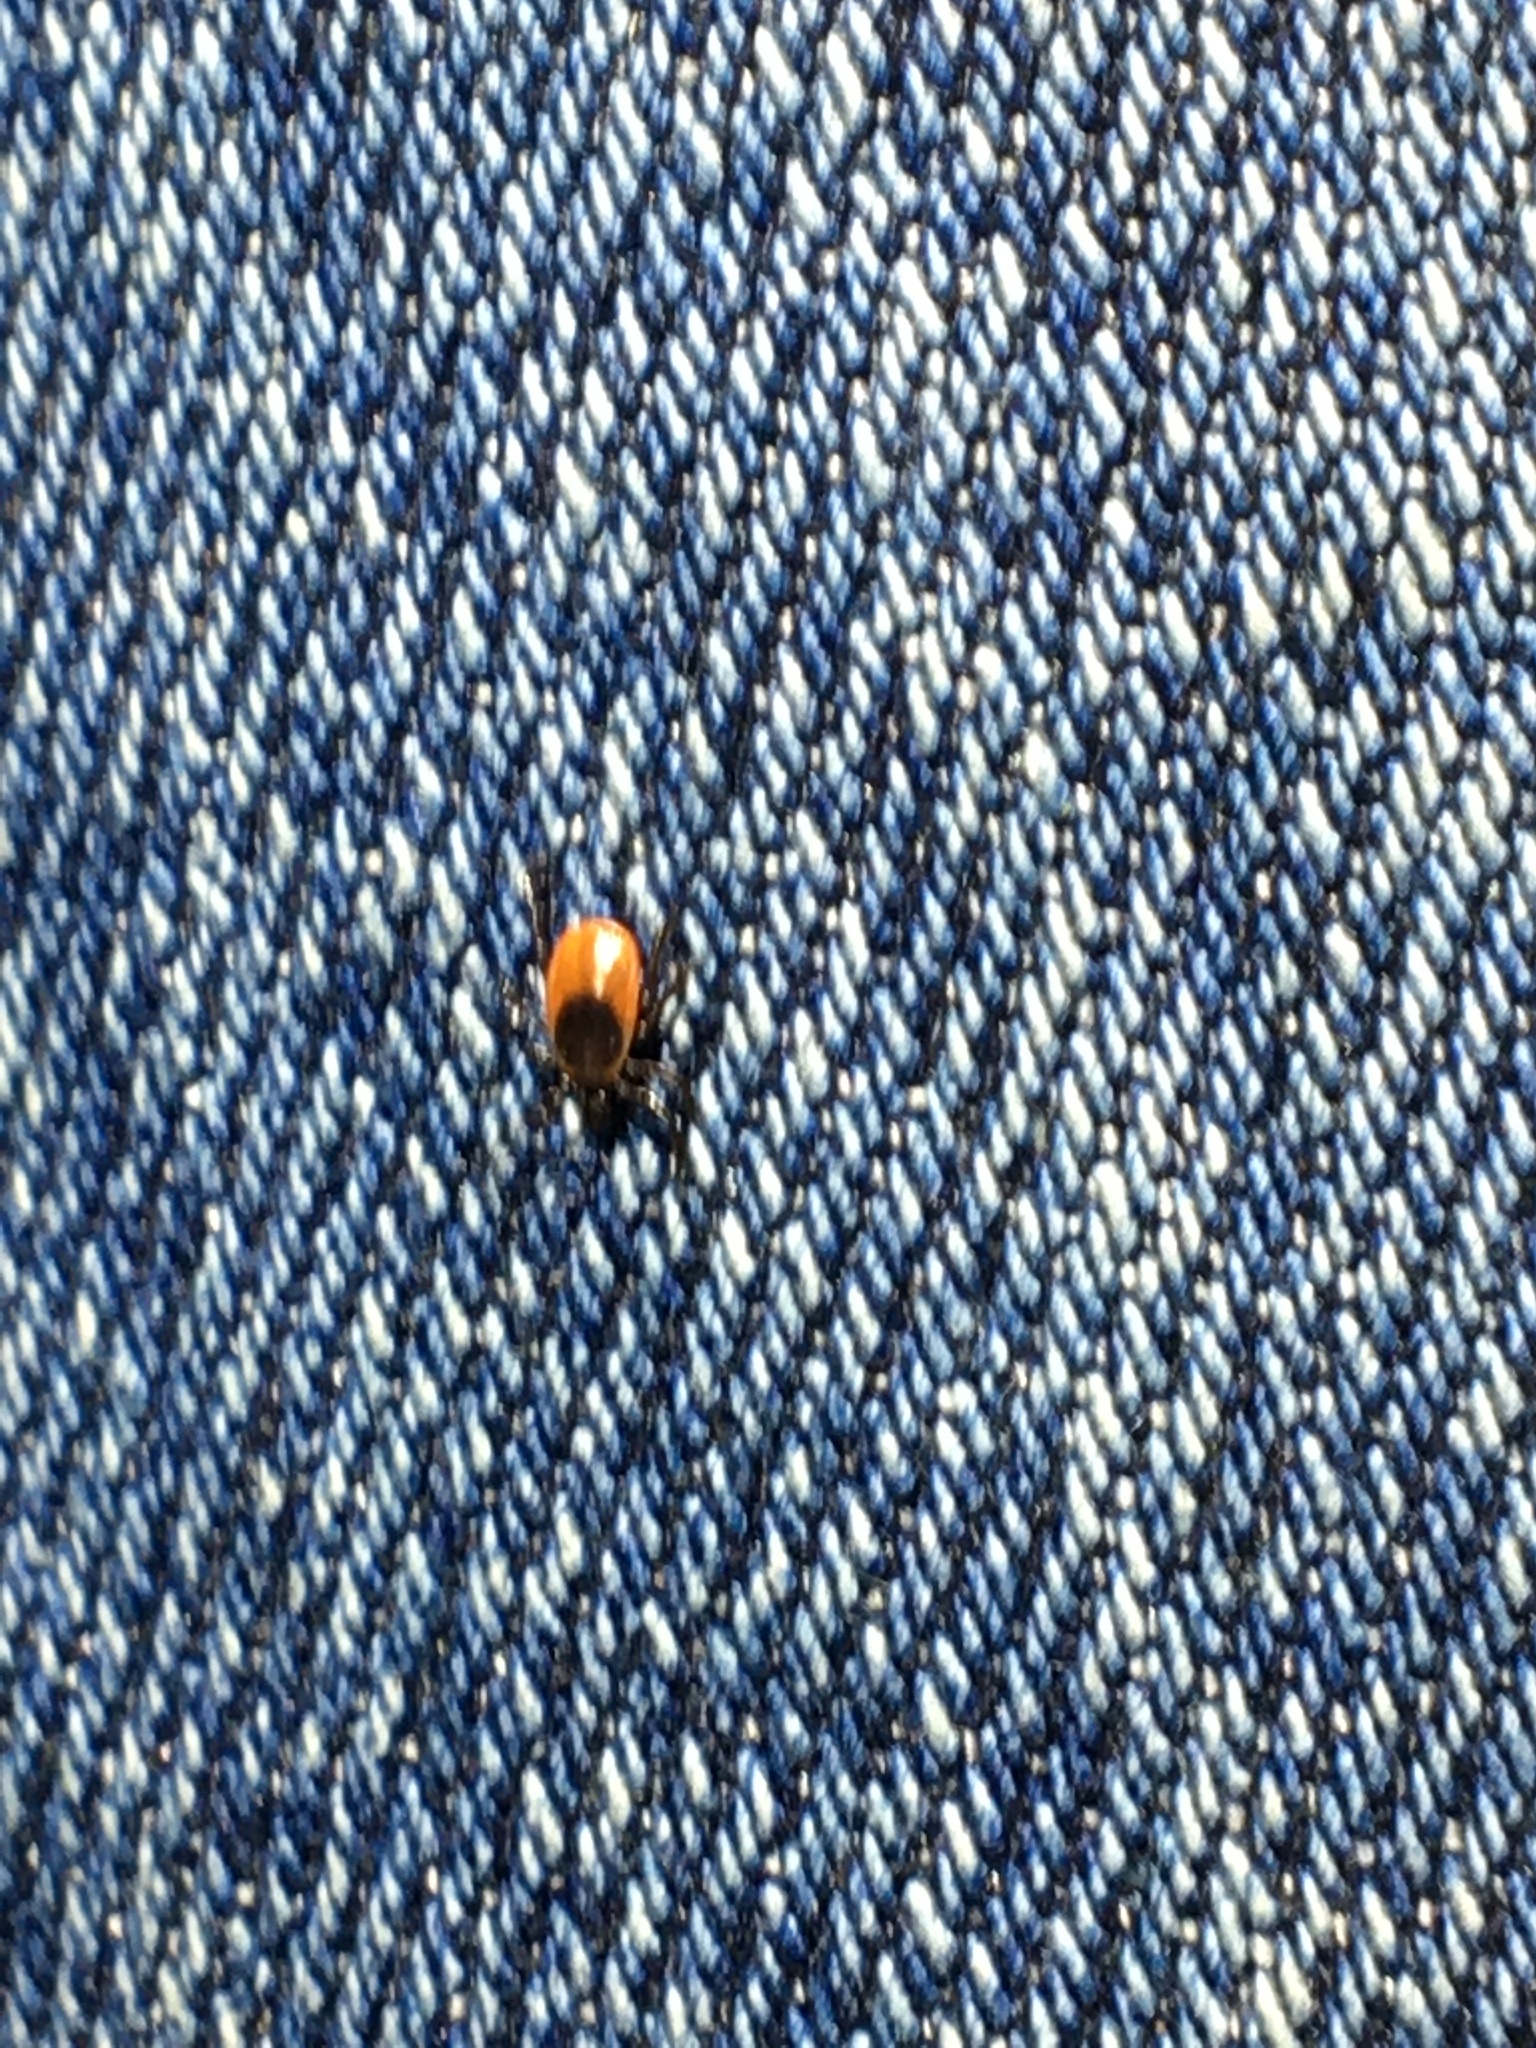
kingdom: Animalia
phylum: Arthropoda
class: Arachnida
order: Ixodida
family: Ixodidae
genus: Ixodes
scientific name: Ixodes scapularis
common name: Black legged tick
